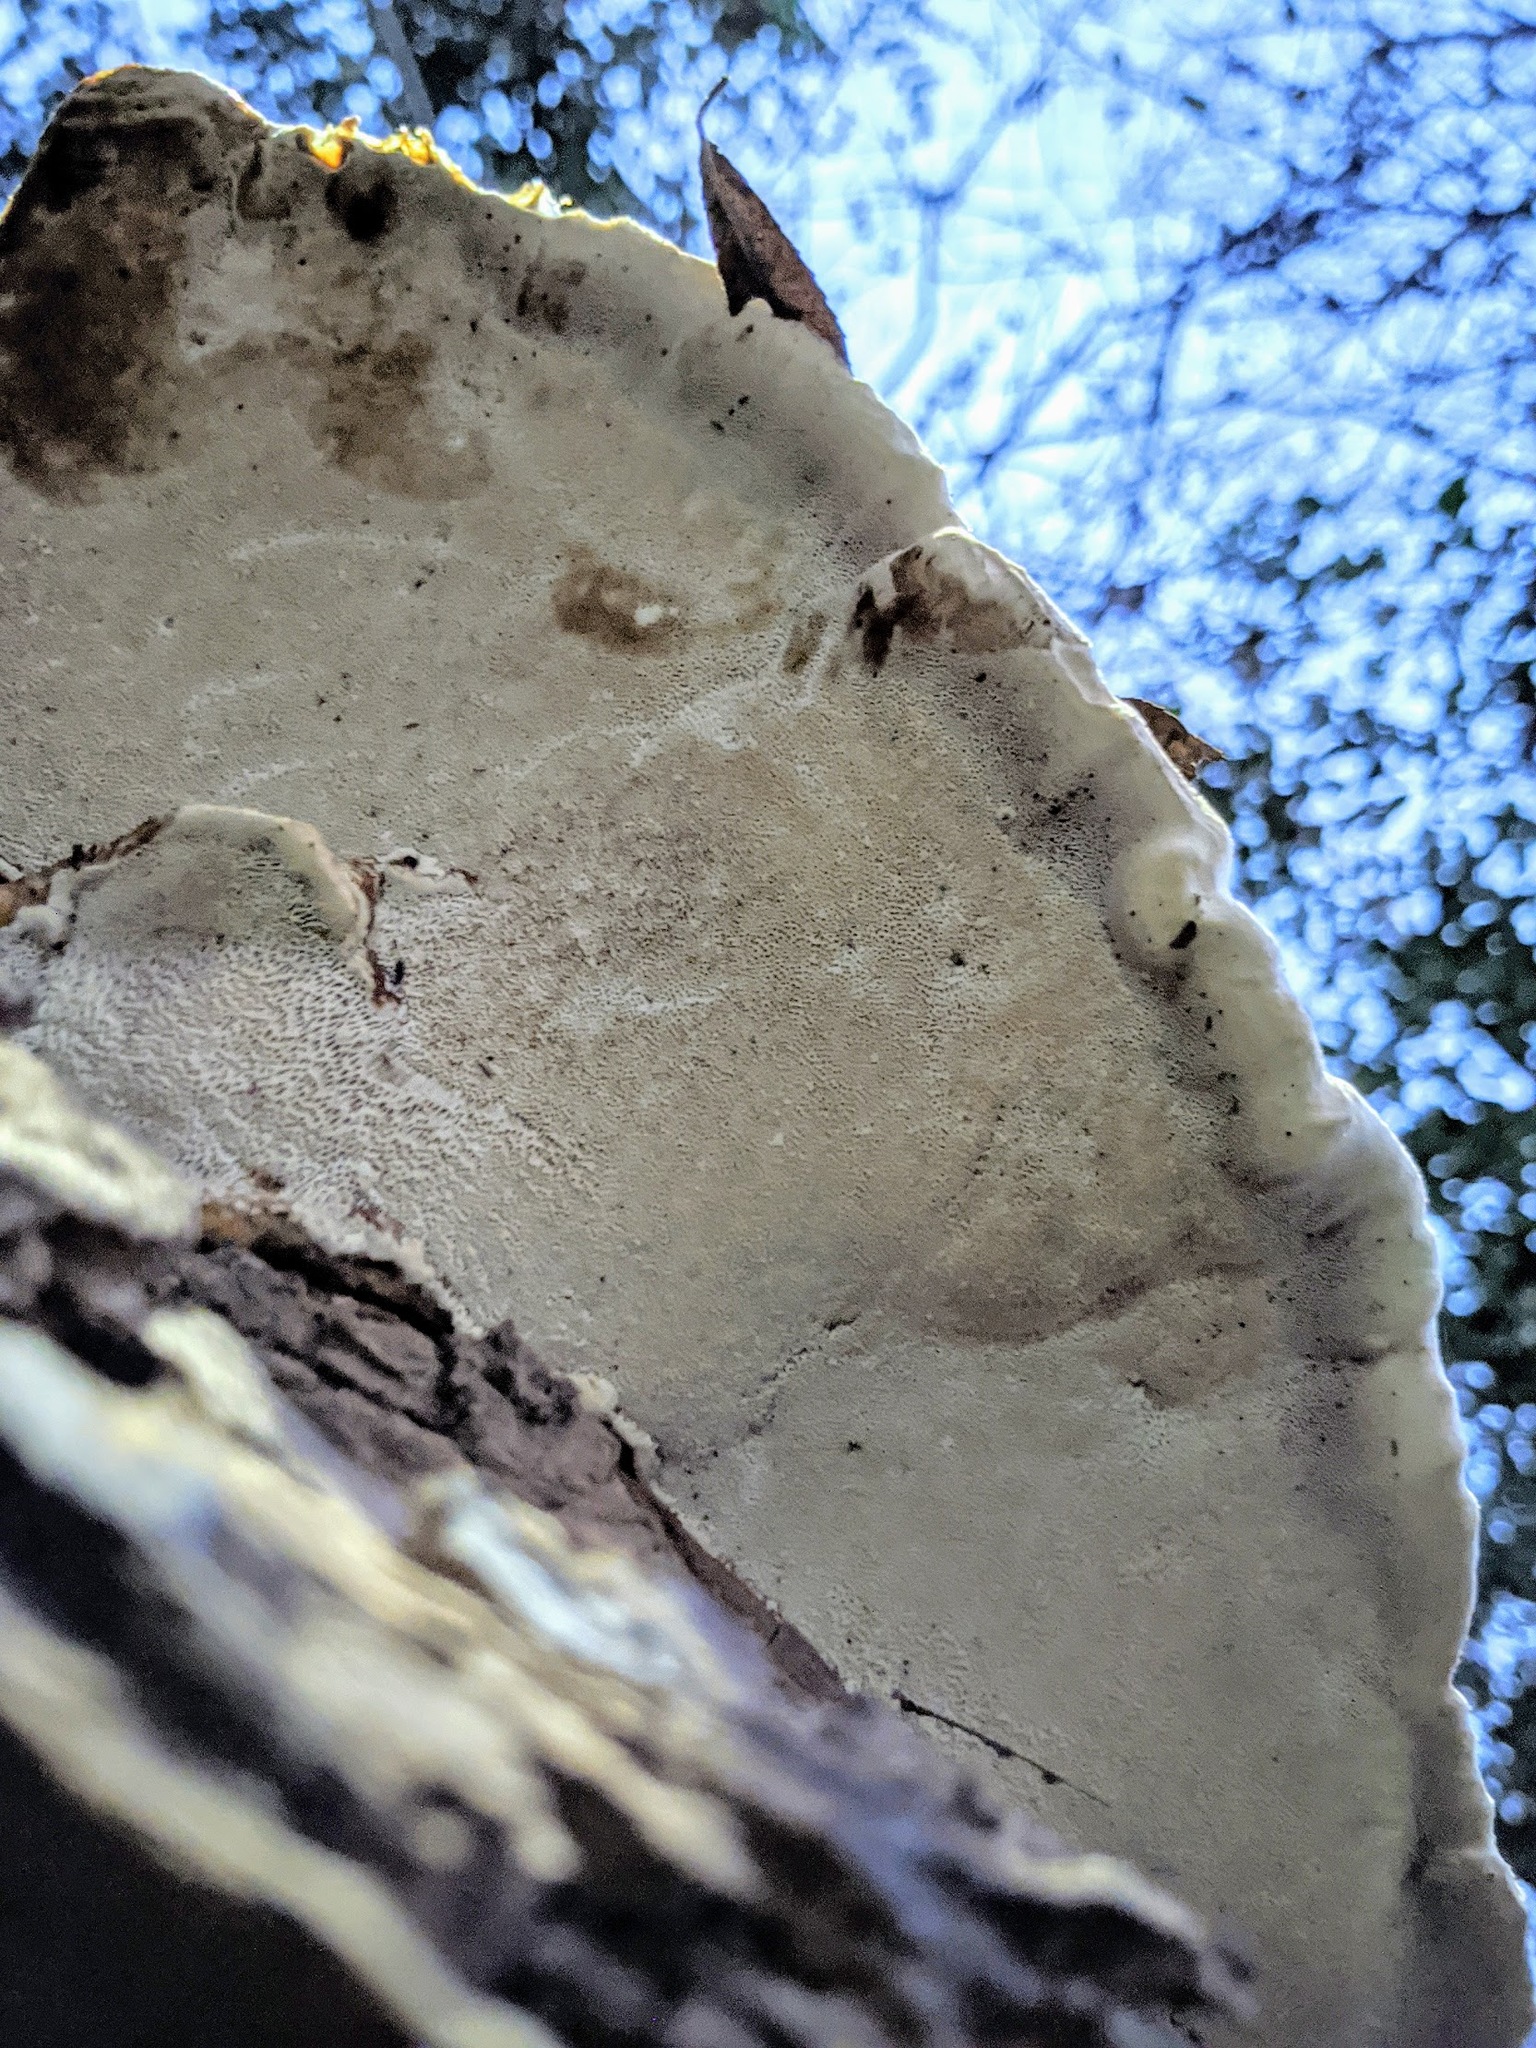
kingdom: Fungi
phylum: Basidiomycota
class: Agaricomycetes
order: Polyporales
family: Polyporaceae
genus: Ganoderma
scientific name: Ganoderma resinaceum
